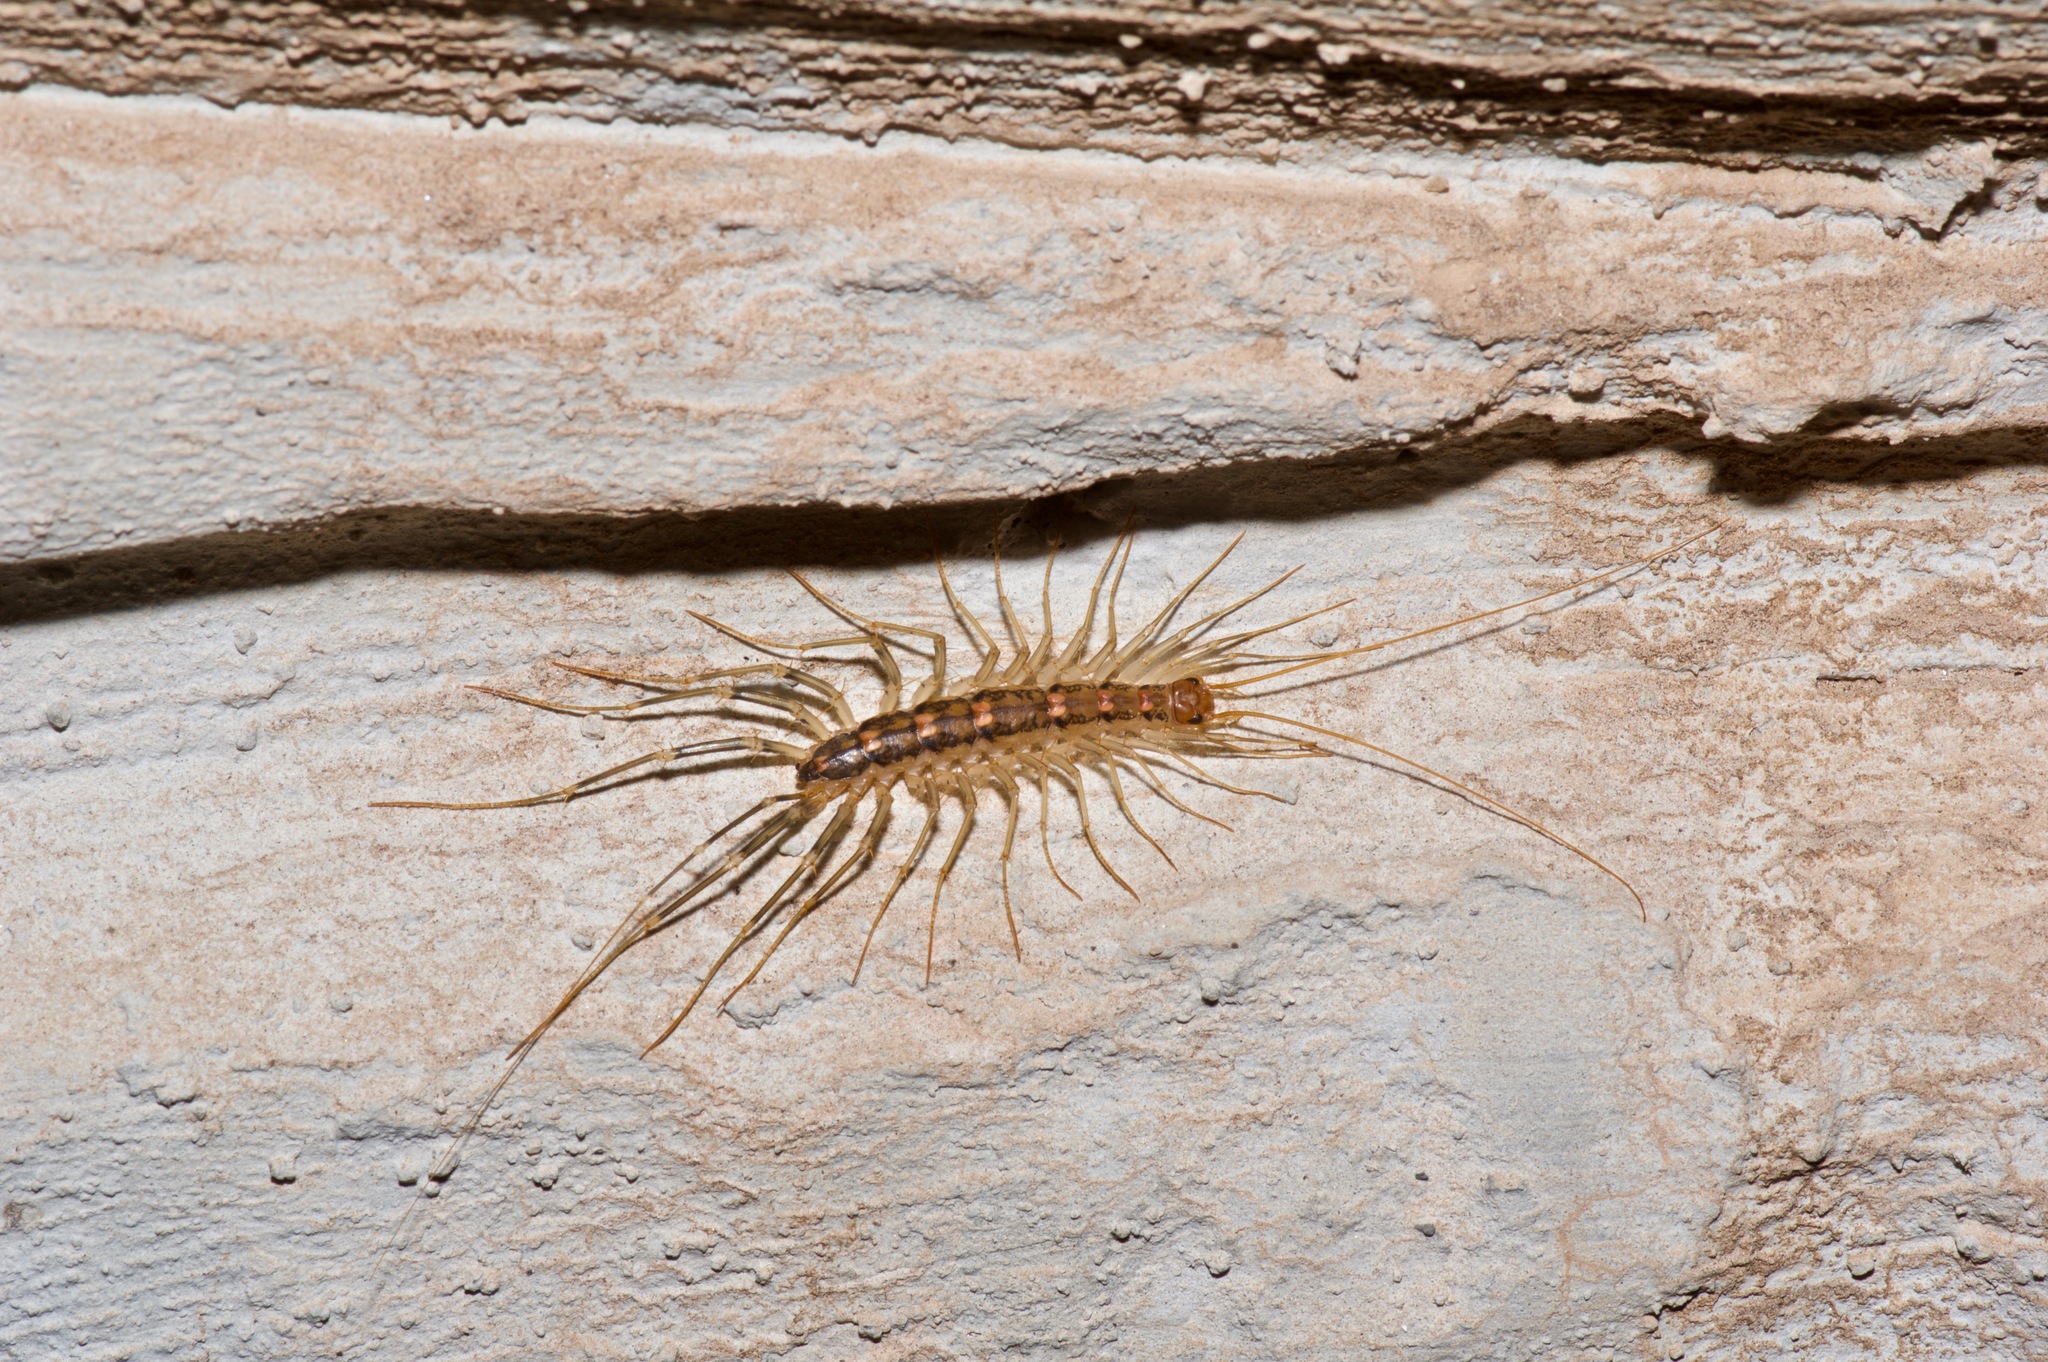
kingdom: Animalia
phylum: Arthropoda
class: Chilopoda
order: Scutigeromorpha
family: Scutigeridae
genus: Scutigera
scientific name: Scutigera coleoptrata
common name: House centipede
